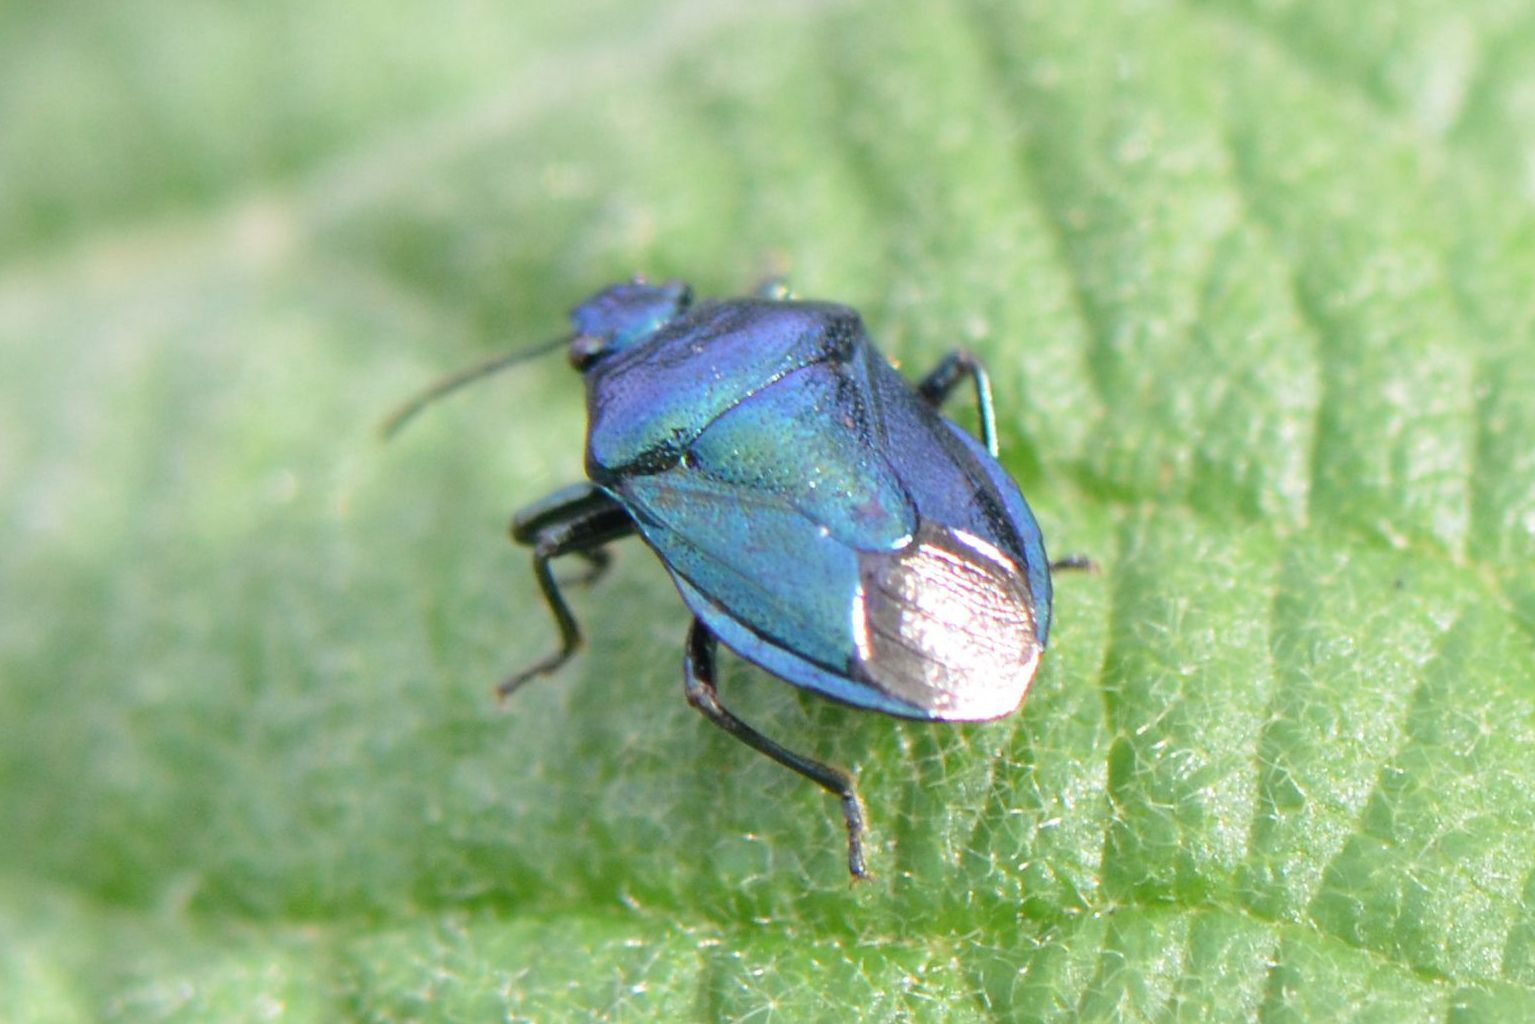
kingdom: Animalia
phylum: Arthropoda
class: Insecta
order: Hemiptera
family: Pentatomidae
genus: Zicrona
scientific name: Zicrona caerulea
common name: Blue shieldbug
